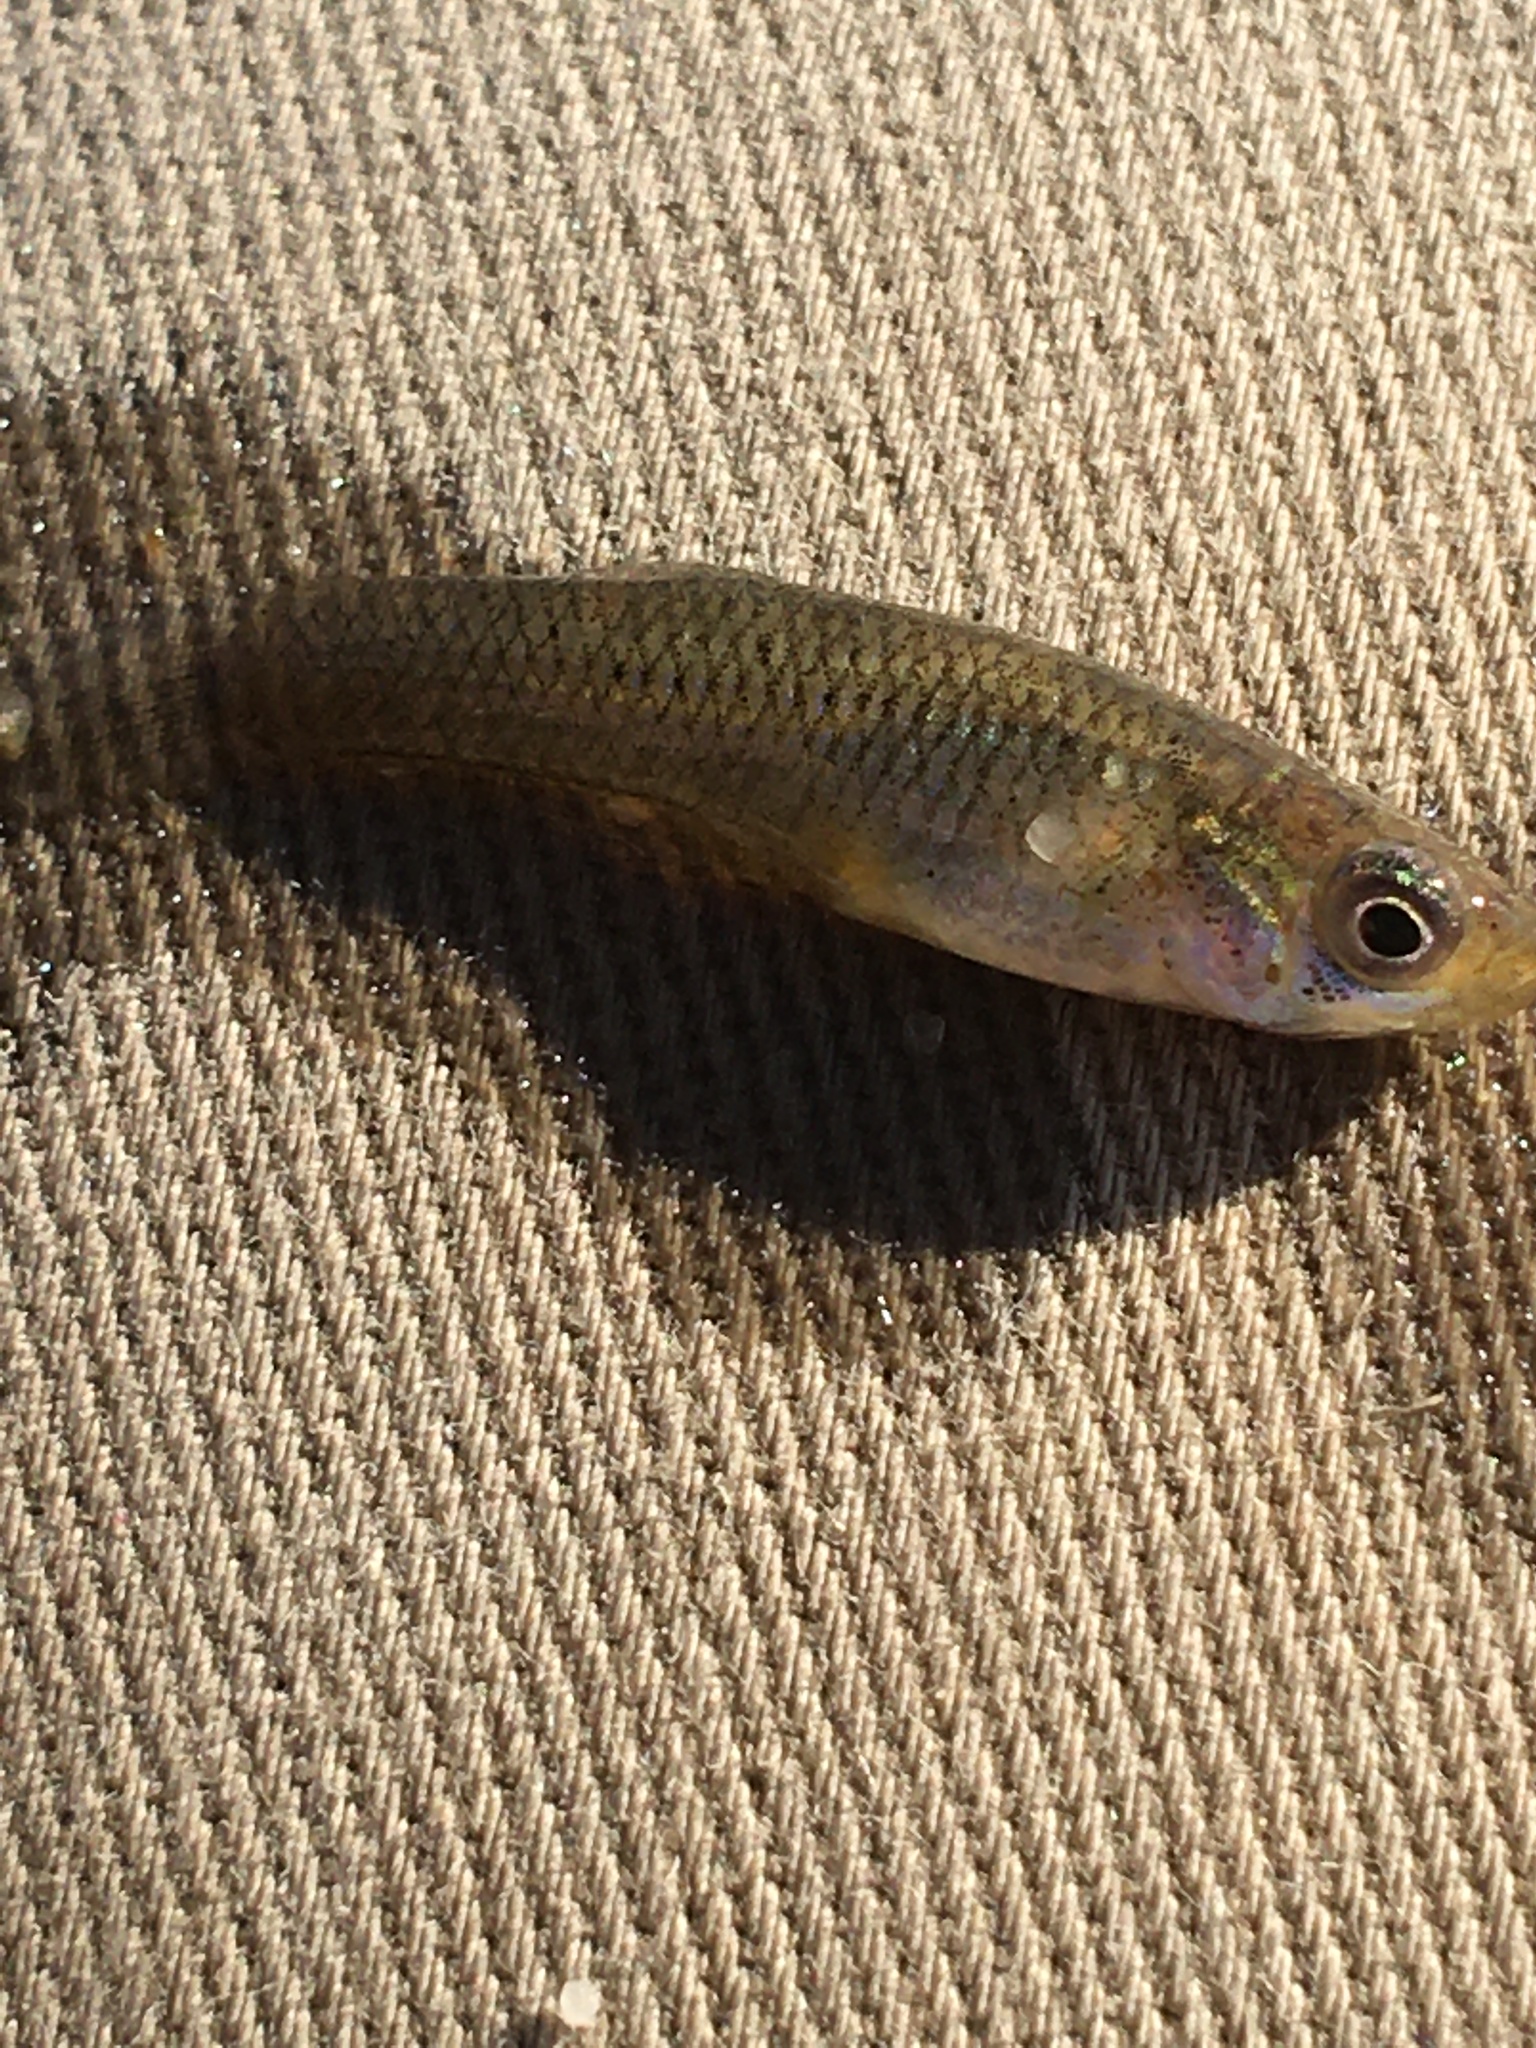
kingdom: Animalia
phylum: Chordata
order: Cyprinodontiformes
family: Poeciliidae
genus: Gambusia
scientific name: Gambusia affinis
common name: Mosquitofish
